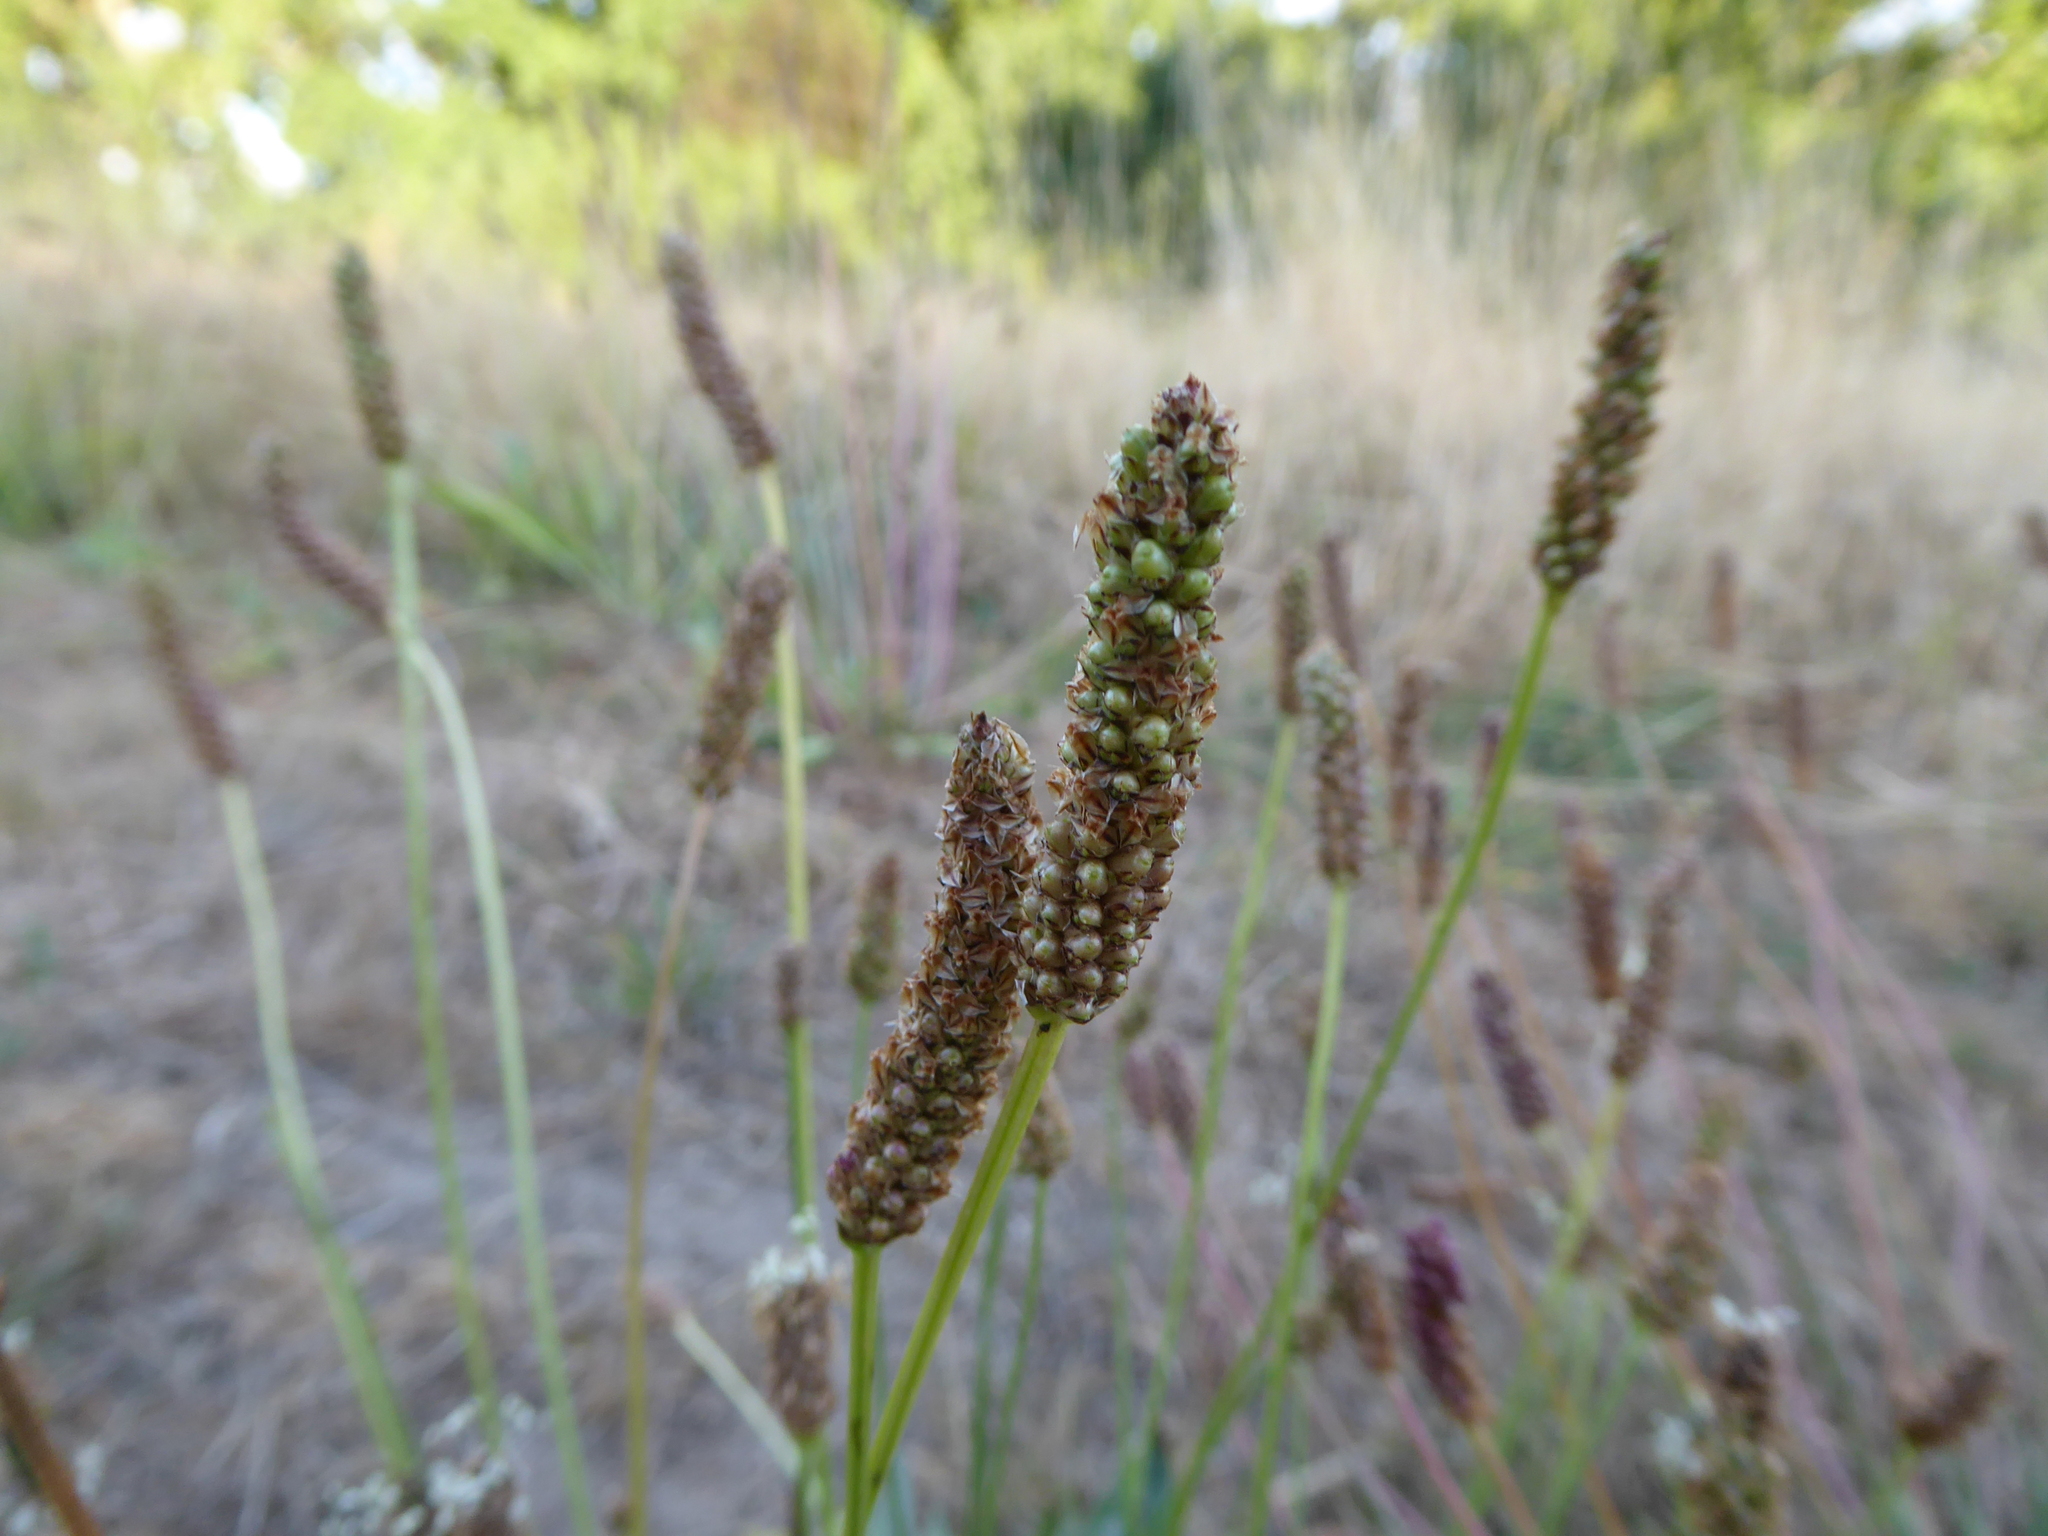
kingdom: Plantae
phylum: Tracheophyta
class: Magnoliopsida
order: Lamiales
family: Plantaginaceae
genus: Plantago
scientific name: Plantago lanceolata
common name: Ribwort plantain
